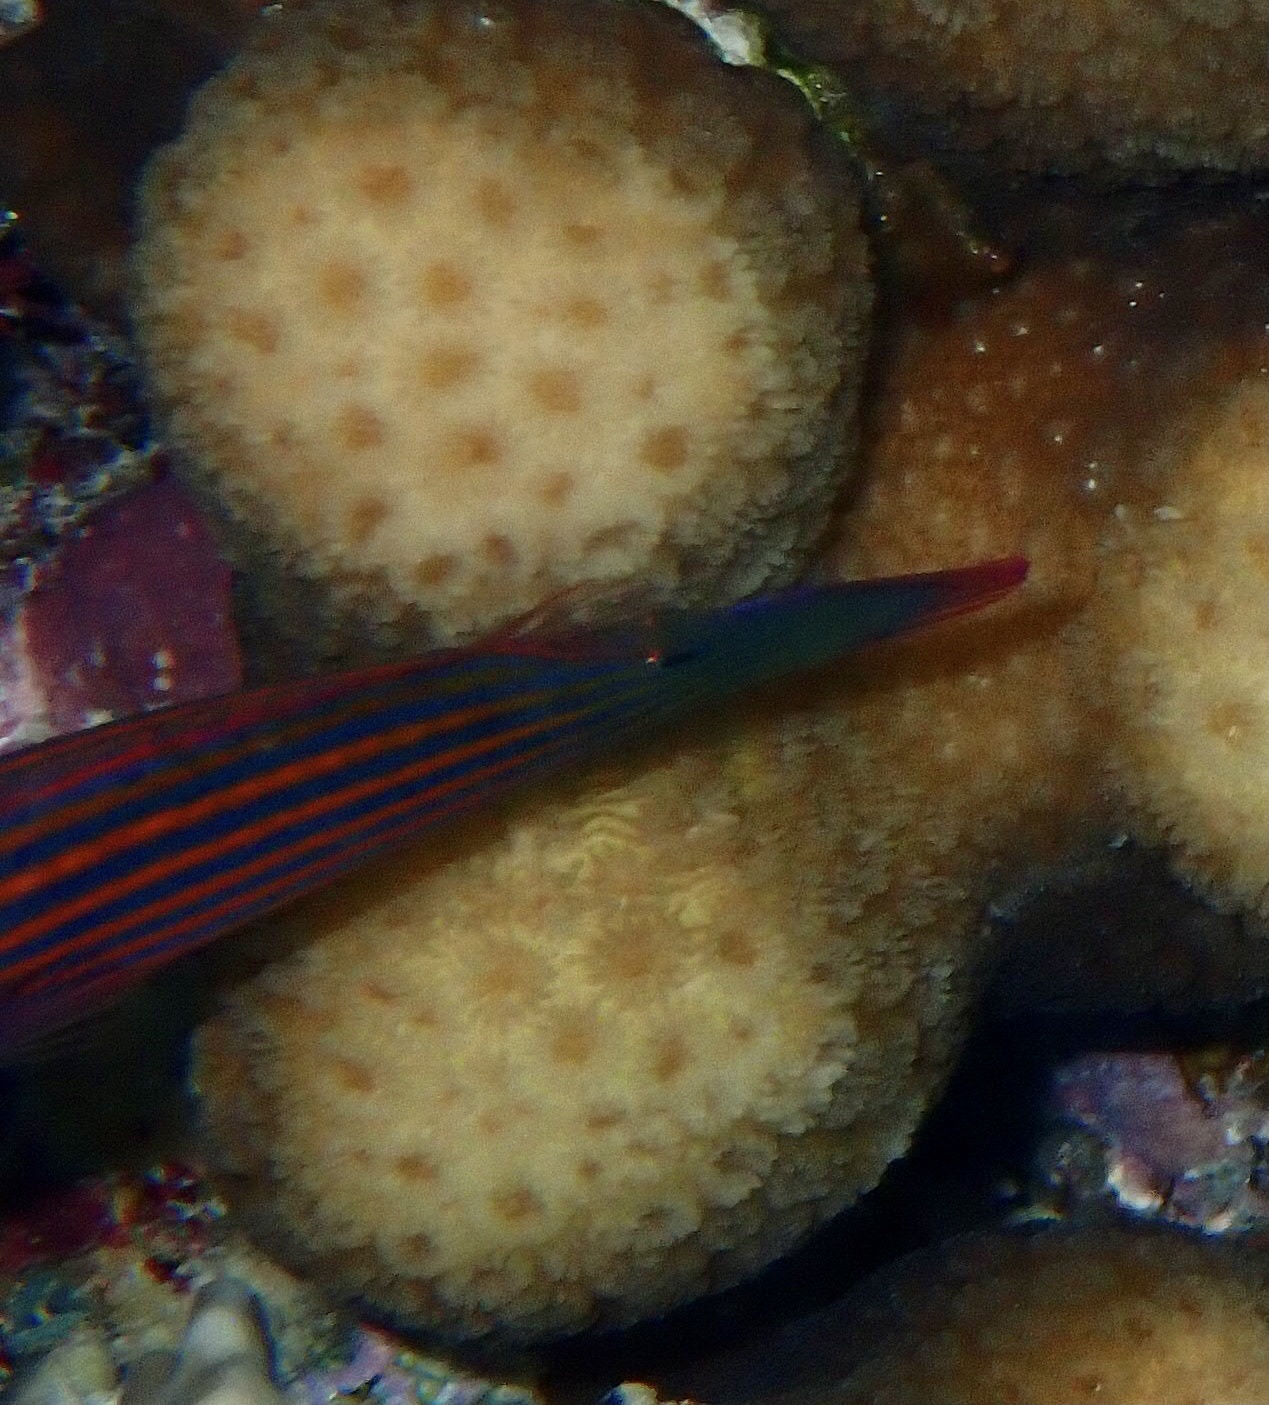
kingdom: Animalia
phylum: Chordata
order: Perciformes
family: Labridae
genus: Pseudocheilinus
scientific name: Pseudocheilinus hexataenia
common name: Sixline wrasse
